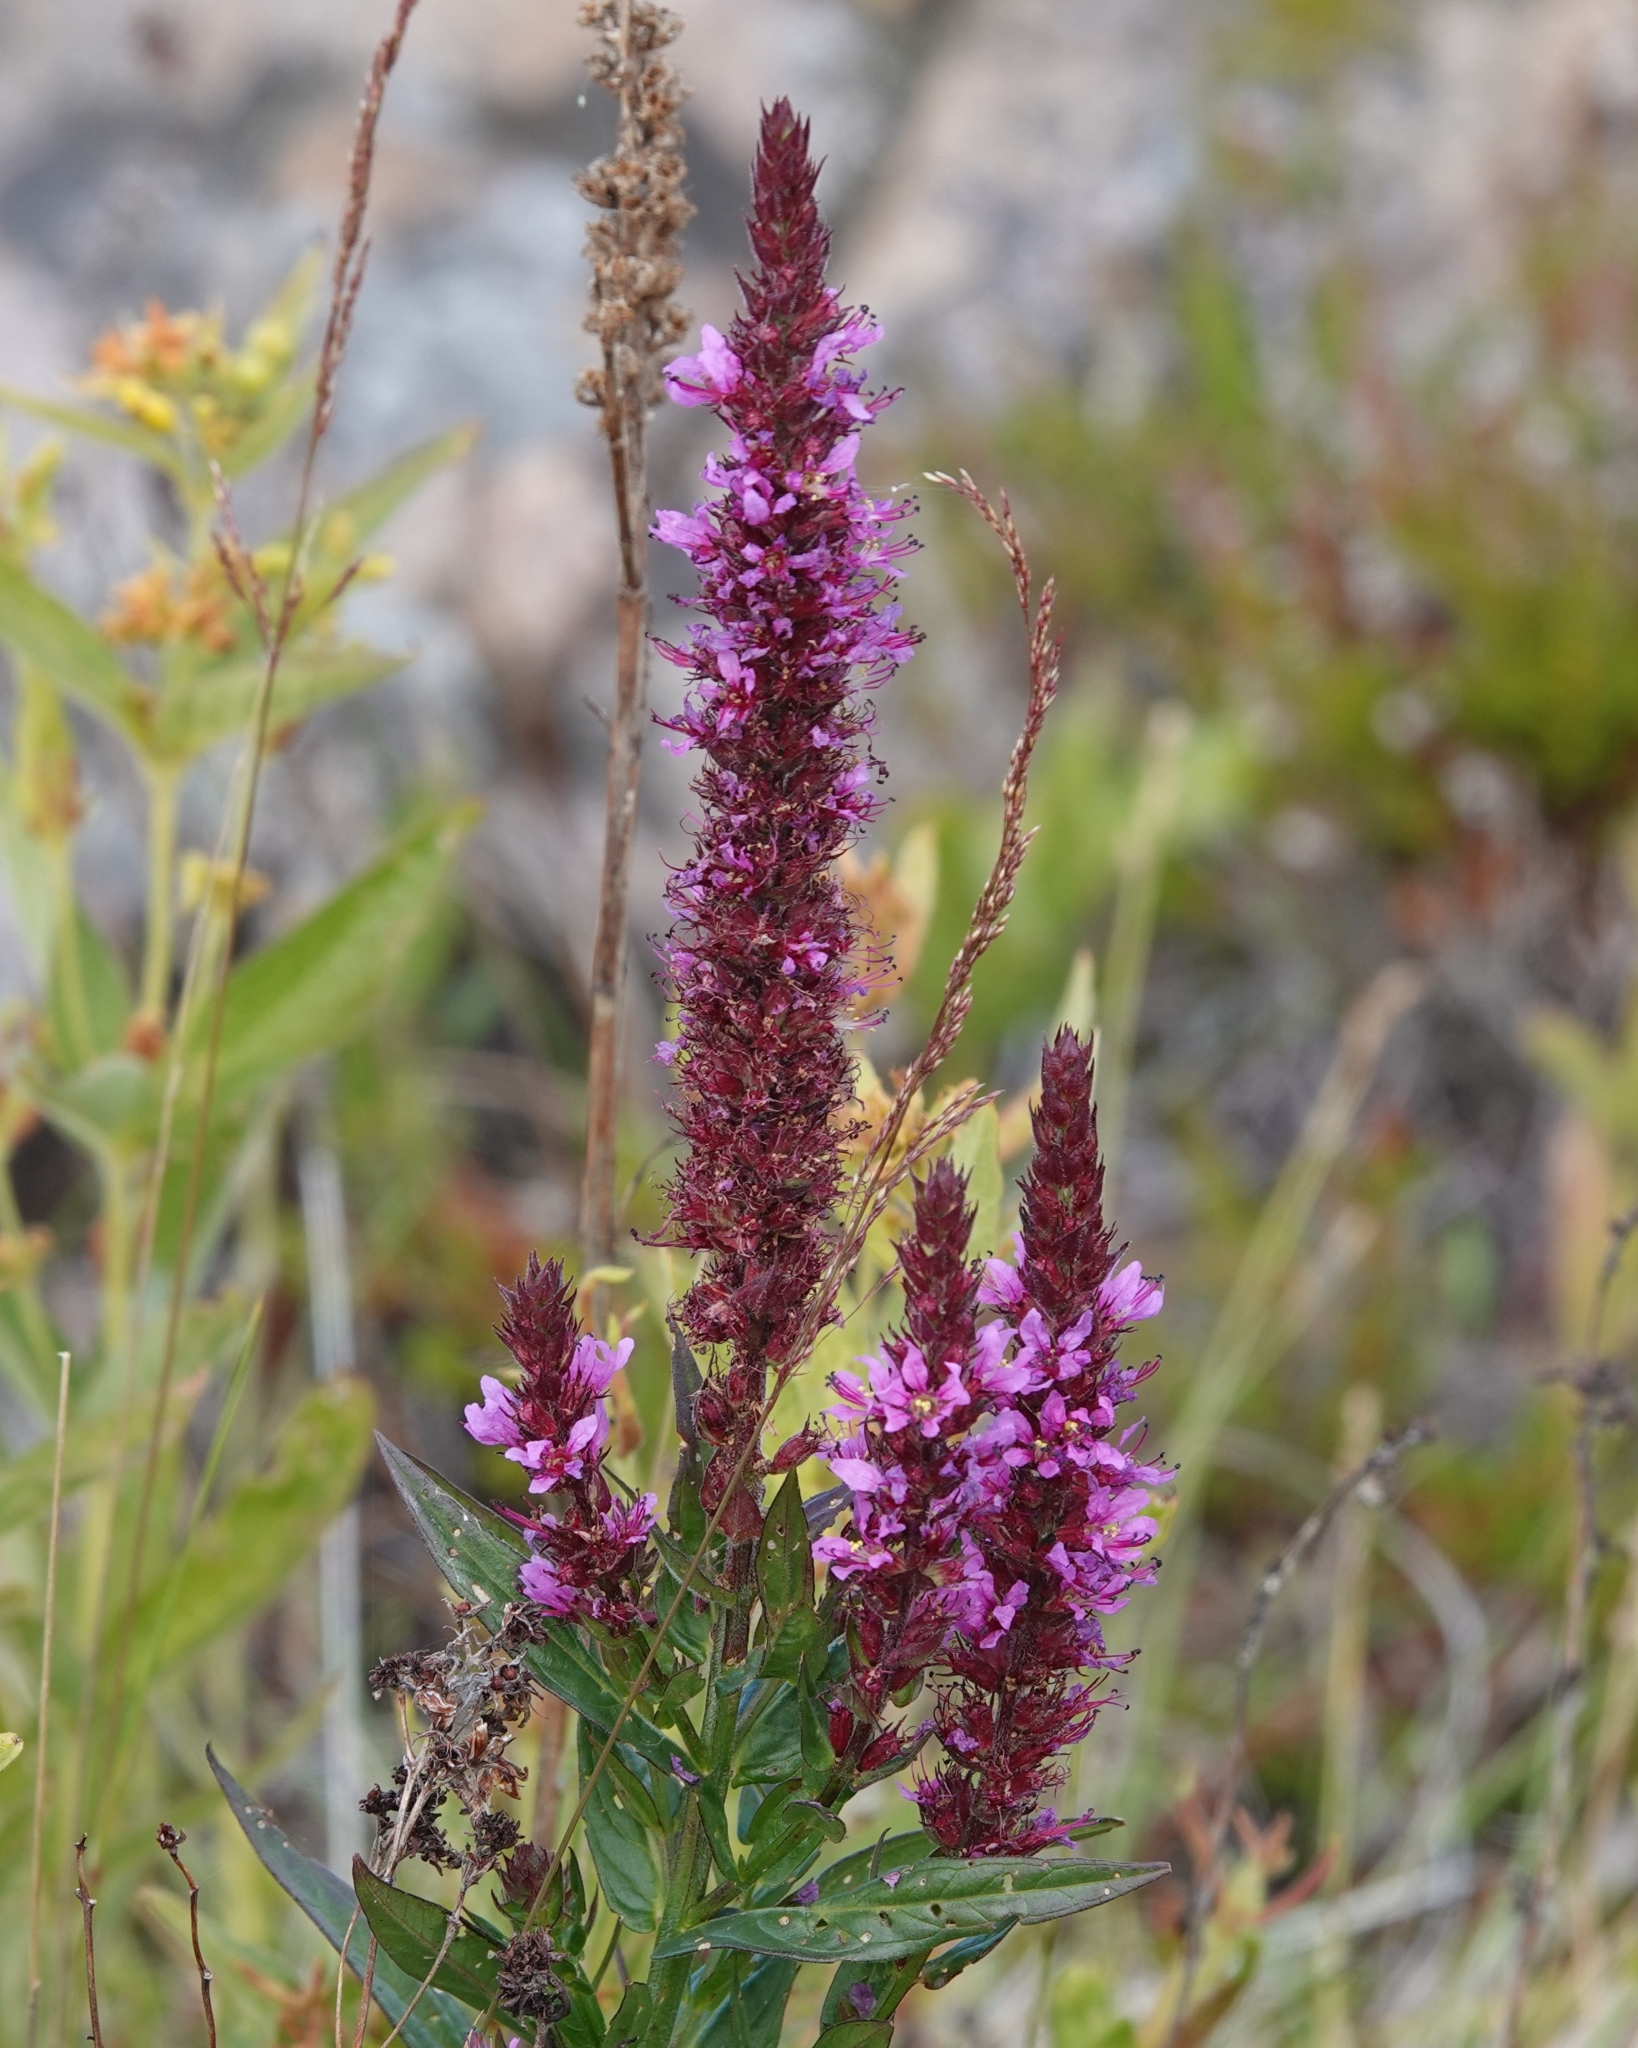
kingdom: Plantae
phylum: Tracheophyta
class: Magnoliopsida
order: Myrtales
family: Lythraceae
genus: Lythrum
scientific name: Lythrum salicaria
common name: Purple loosestrife
